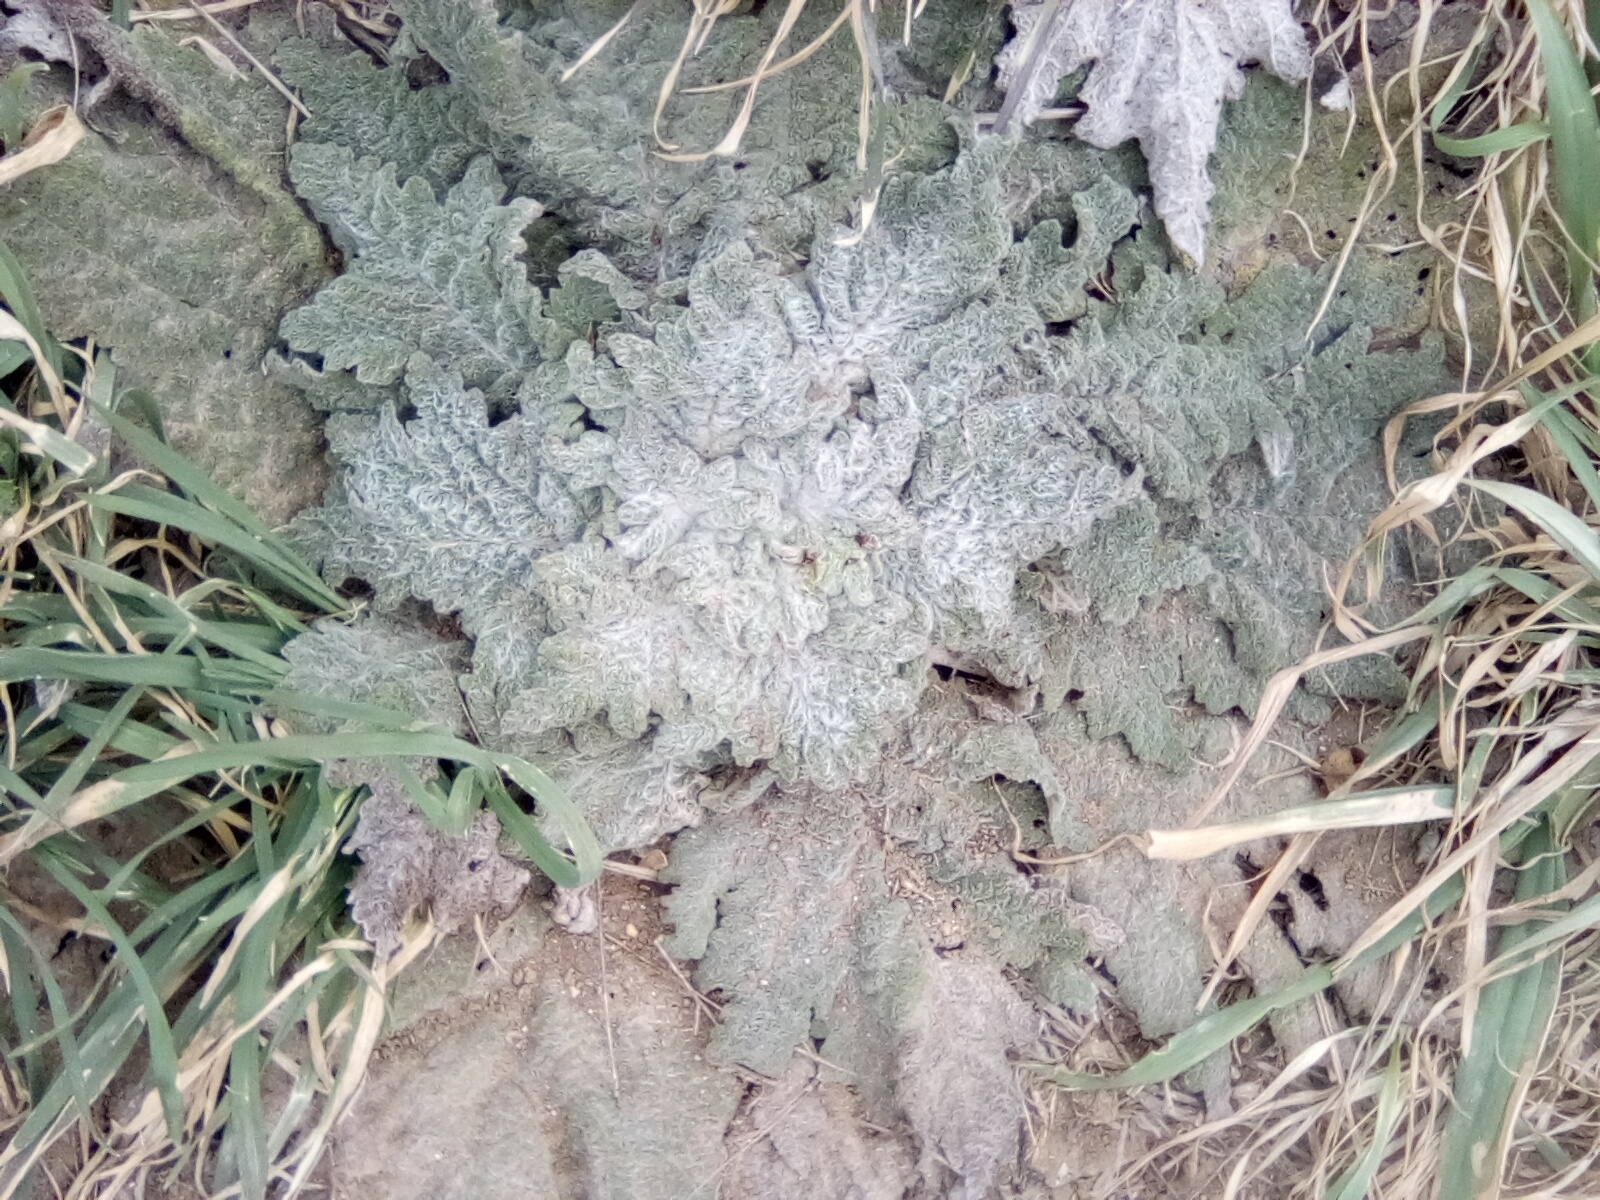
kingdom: Plantae
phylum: Tracheophyta
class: Magnoliopsida
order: Lamiales
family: Lamiaceae
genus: Salvia
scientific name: Salvia aethiopis
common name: Mediterranean sage
